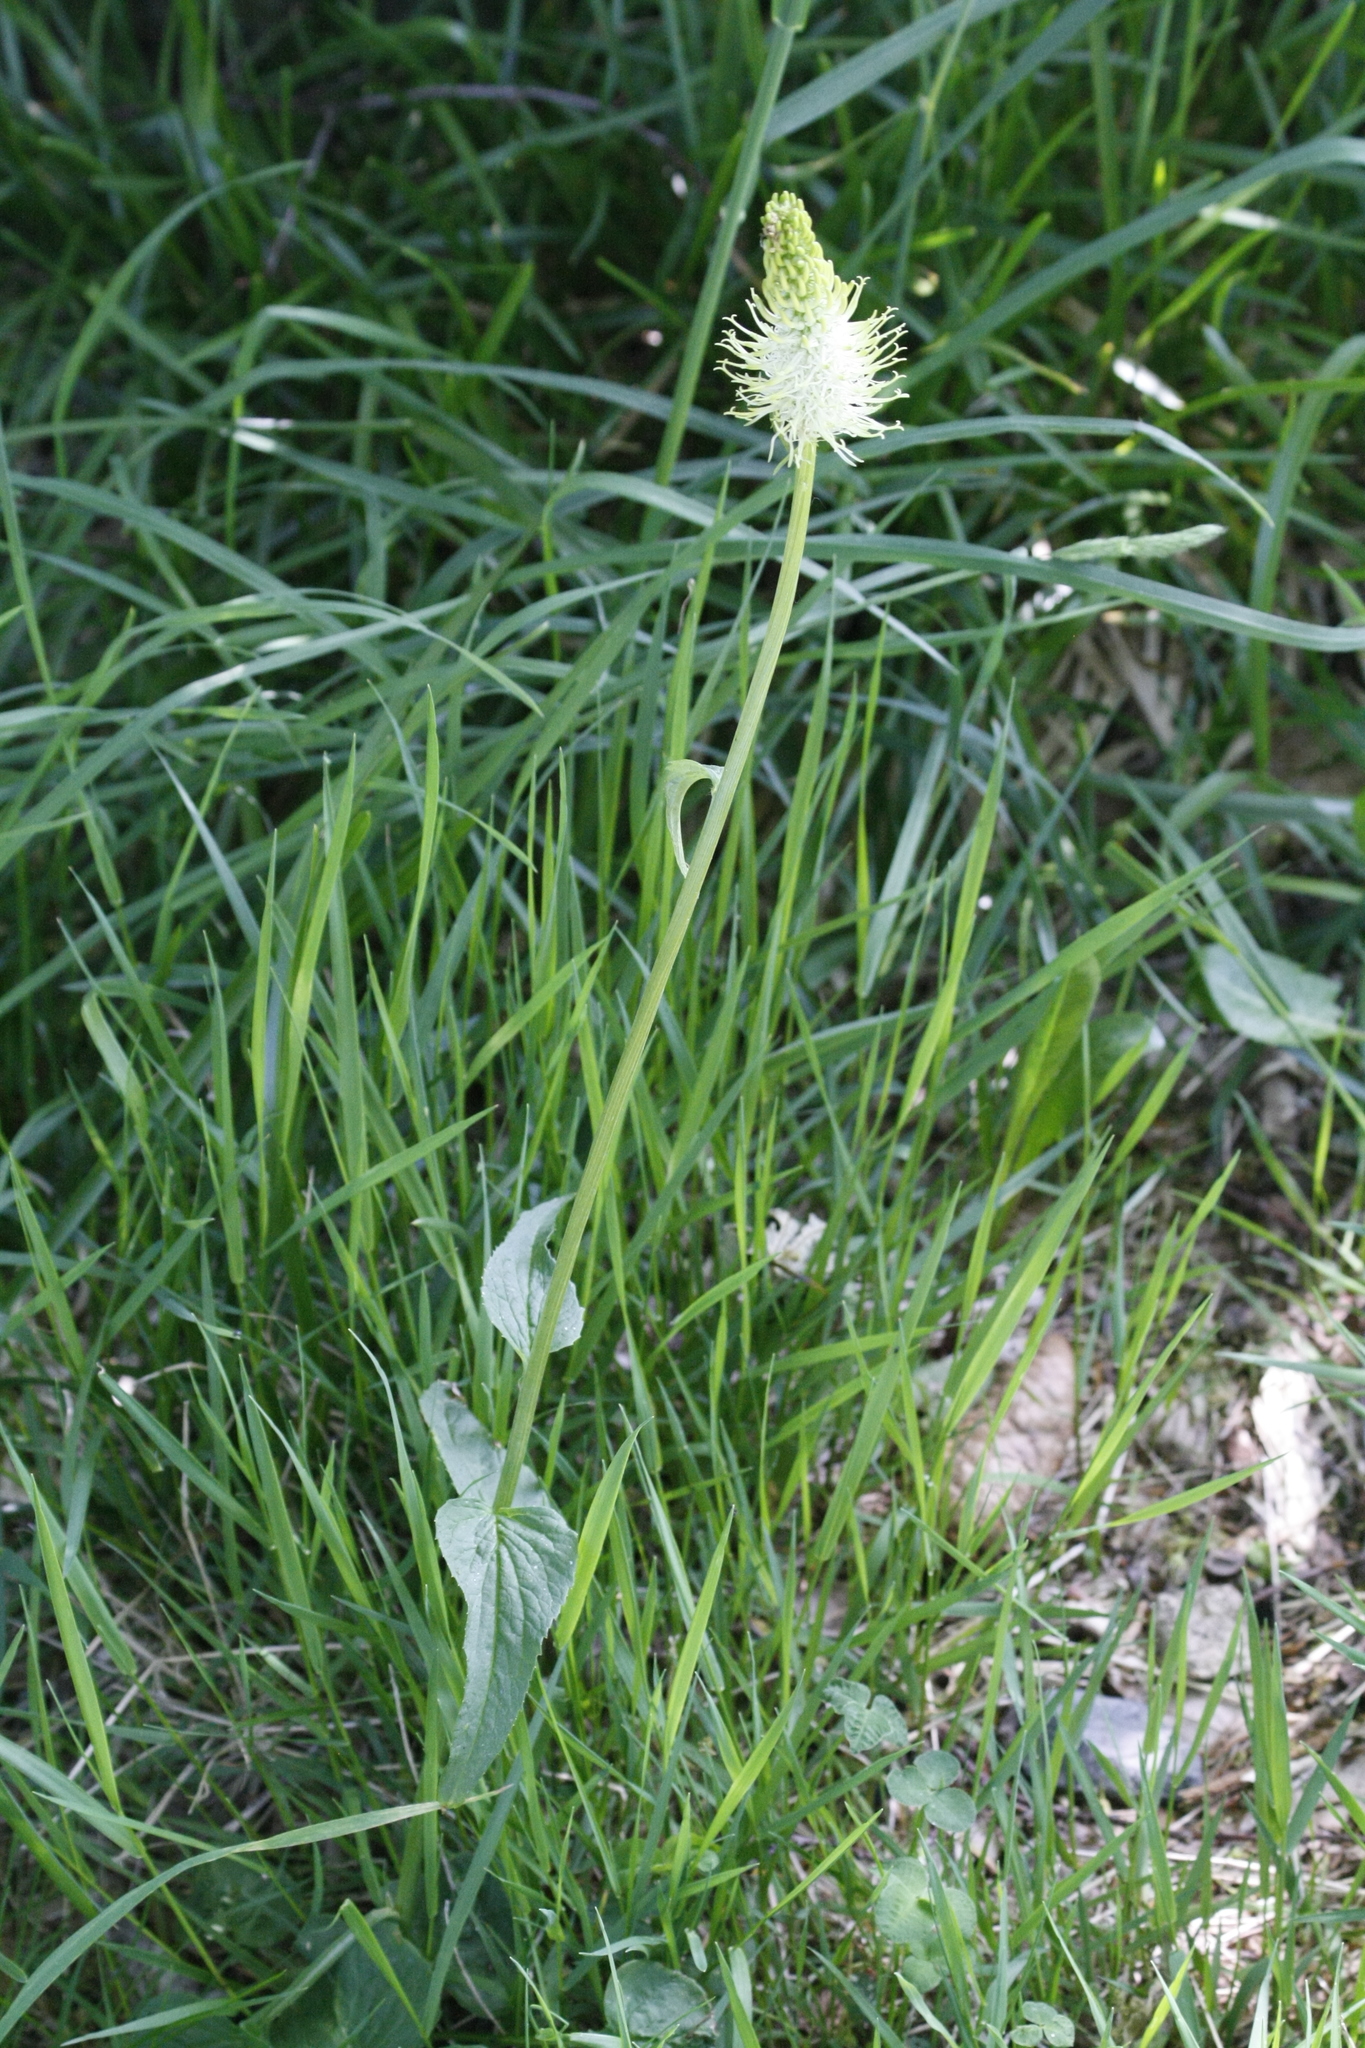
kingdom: Plantae
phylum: Tracheophyta
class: Magnoliopsida
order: Asterales
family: Campanulaceae
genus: Phyteuma
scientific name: Phyteuma spicatum
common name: Spiked rampion
